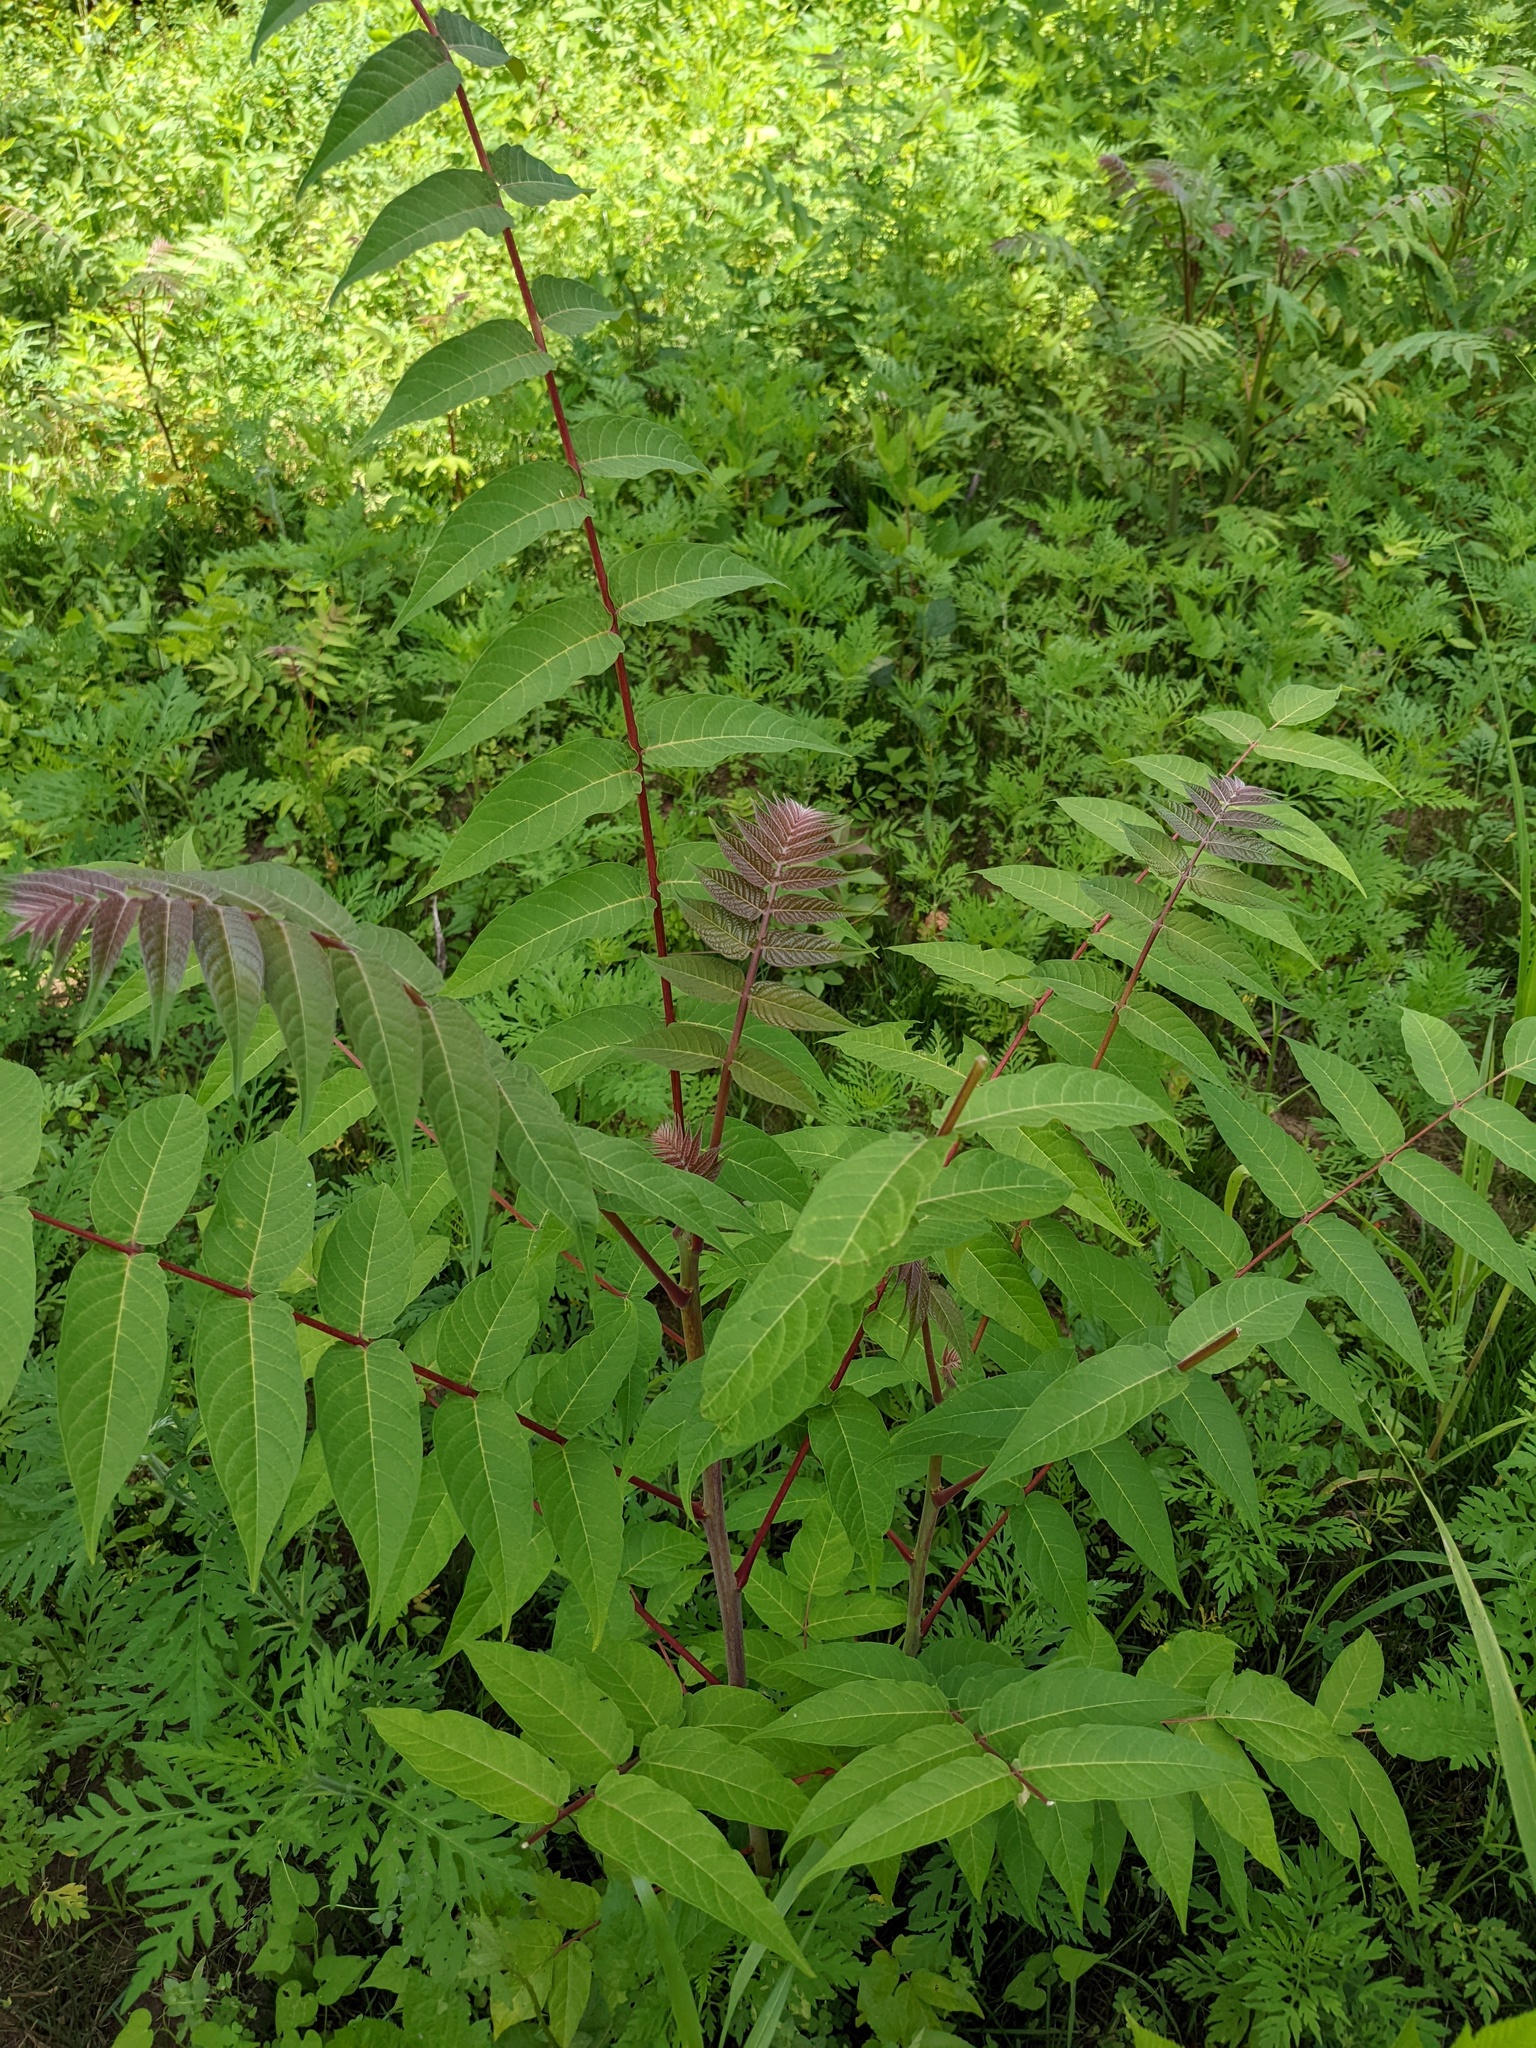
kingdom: Plantae
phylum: Tracheophyta
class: Magnoliopsida
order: Sapindales
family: Simaroubaceae
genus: Ailanthus
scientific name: Ailanthus altissima
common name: Tree-of-heaven
